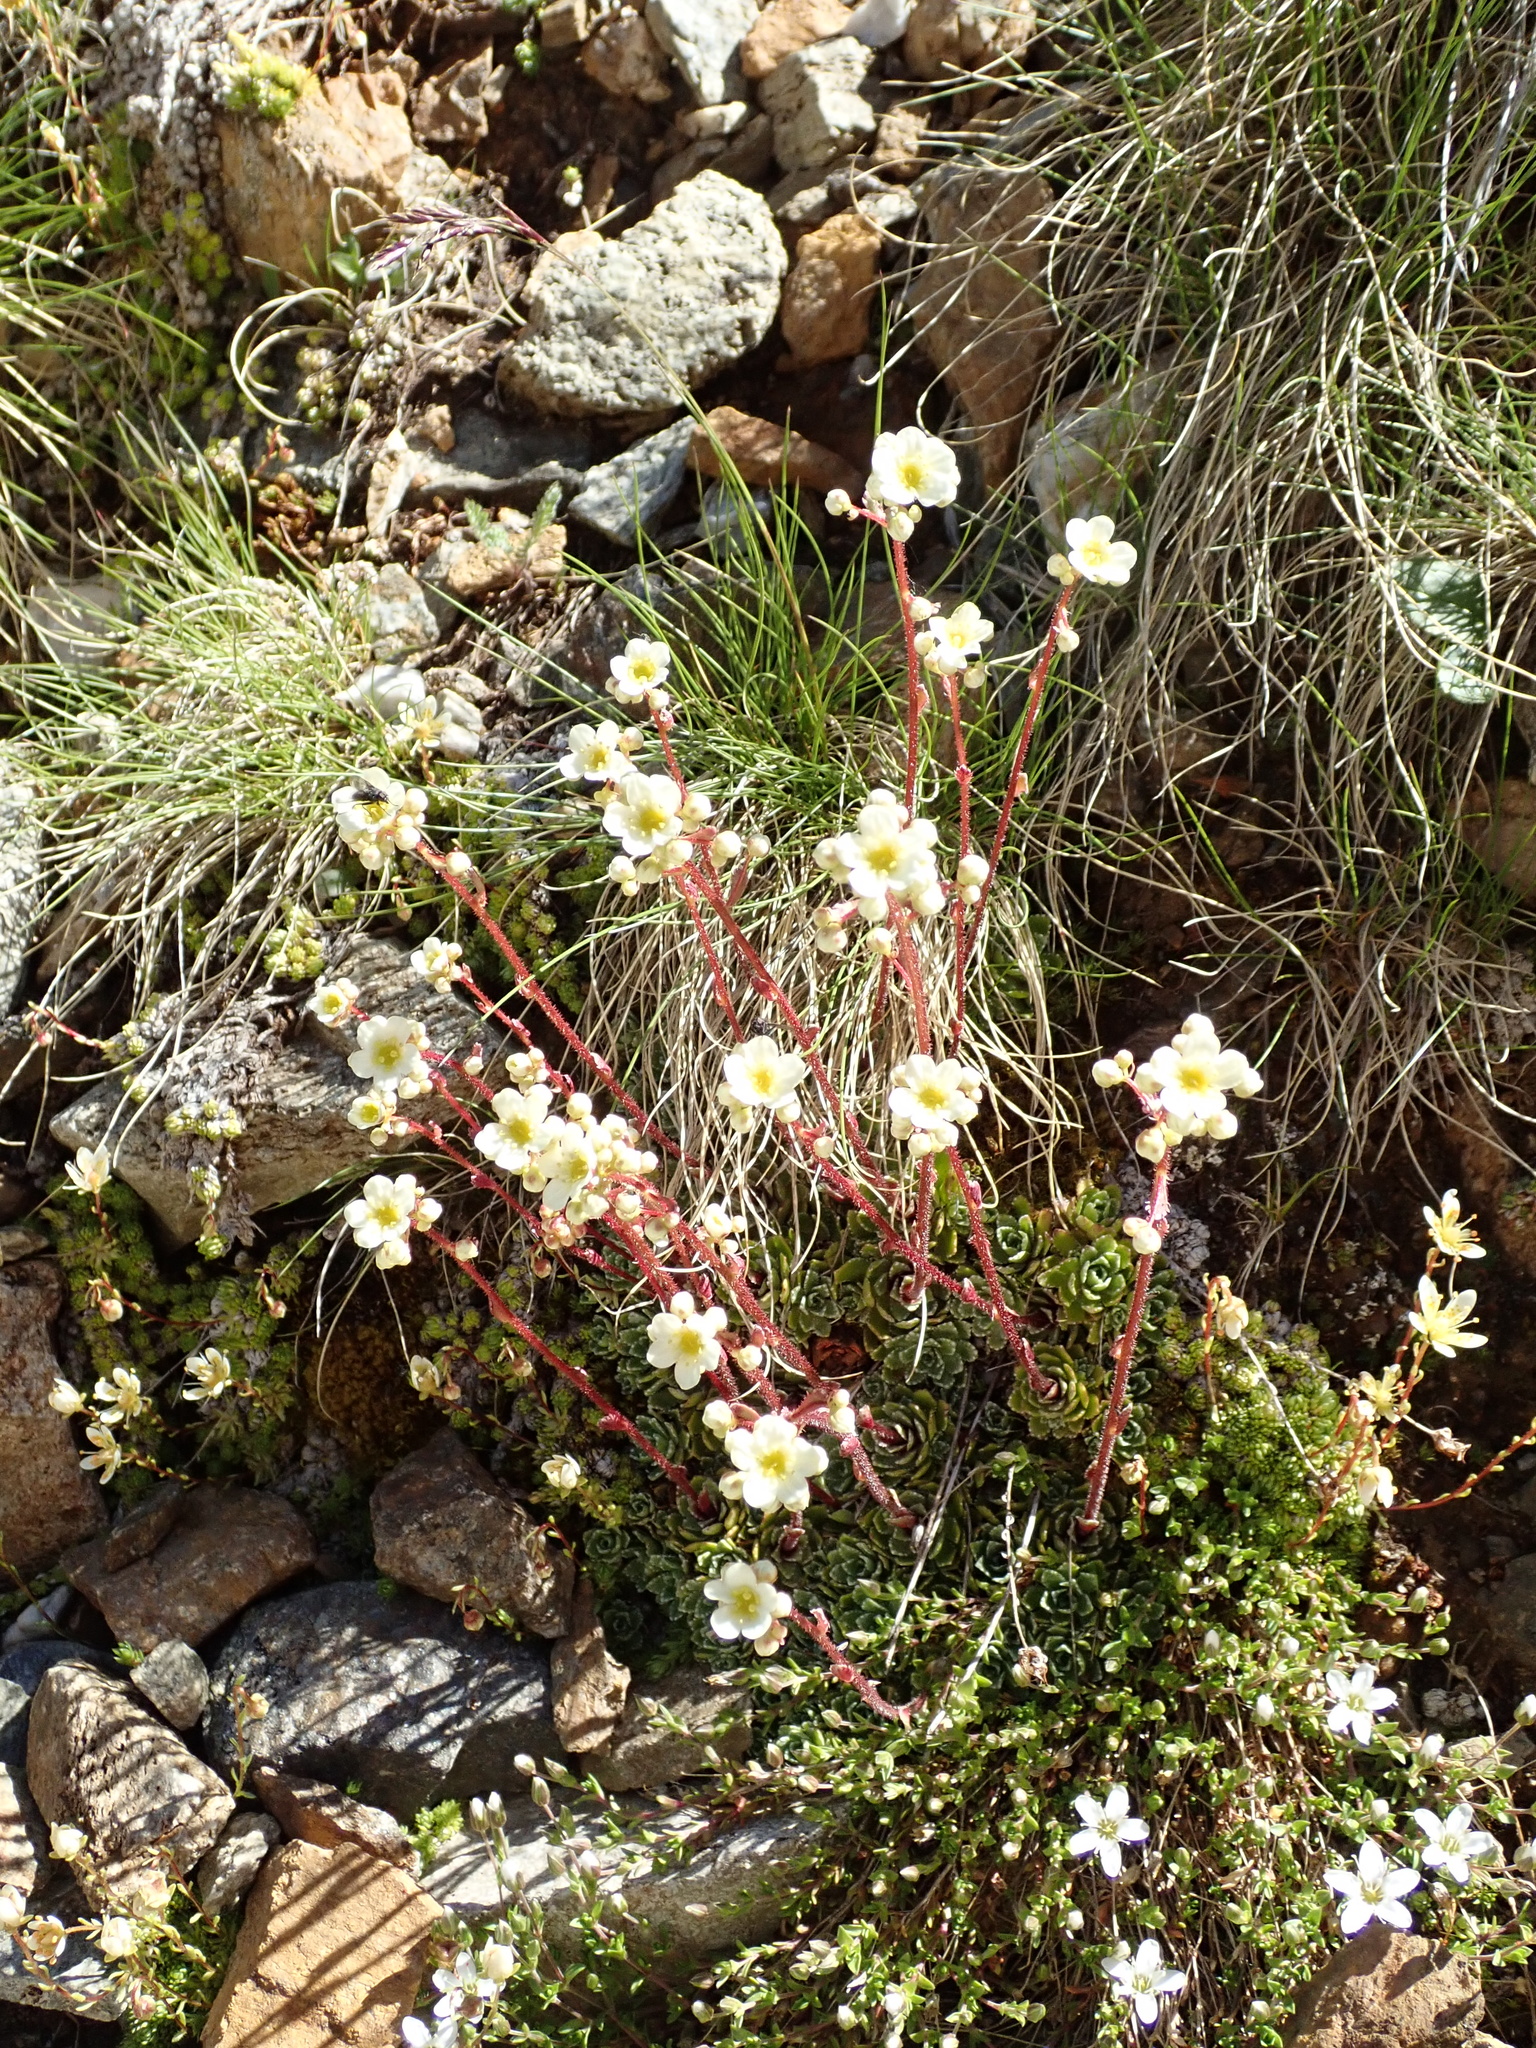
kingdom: Plantae
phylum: Tracheophyta
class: Magnoliopsida
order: Saxifragales
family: Saxifragaceae
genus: Saxifraga
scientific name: Saxifraga paniculata
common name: Livelong saxifrage
